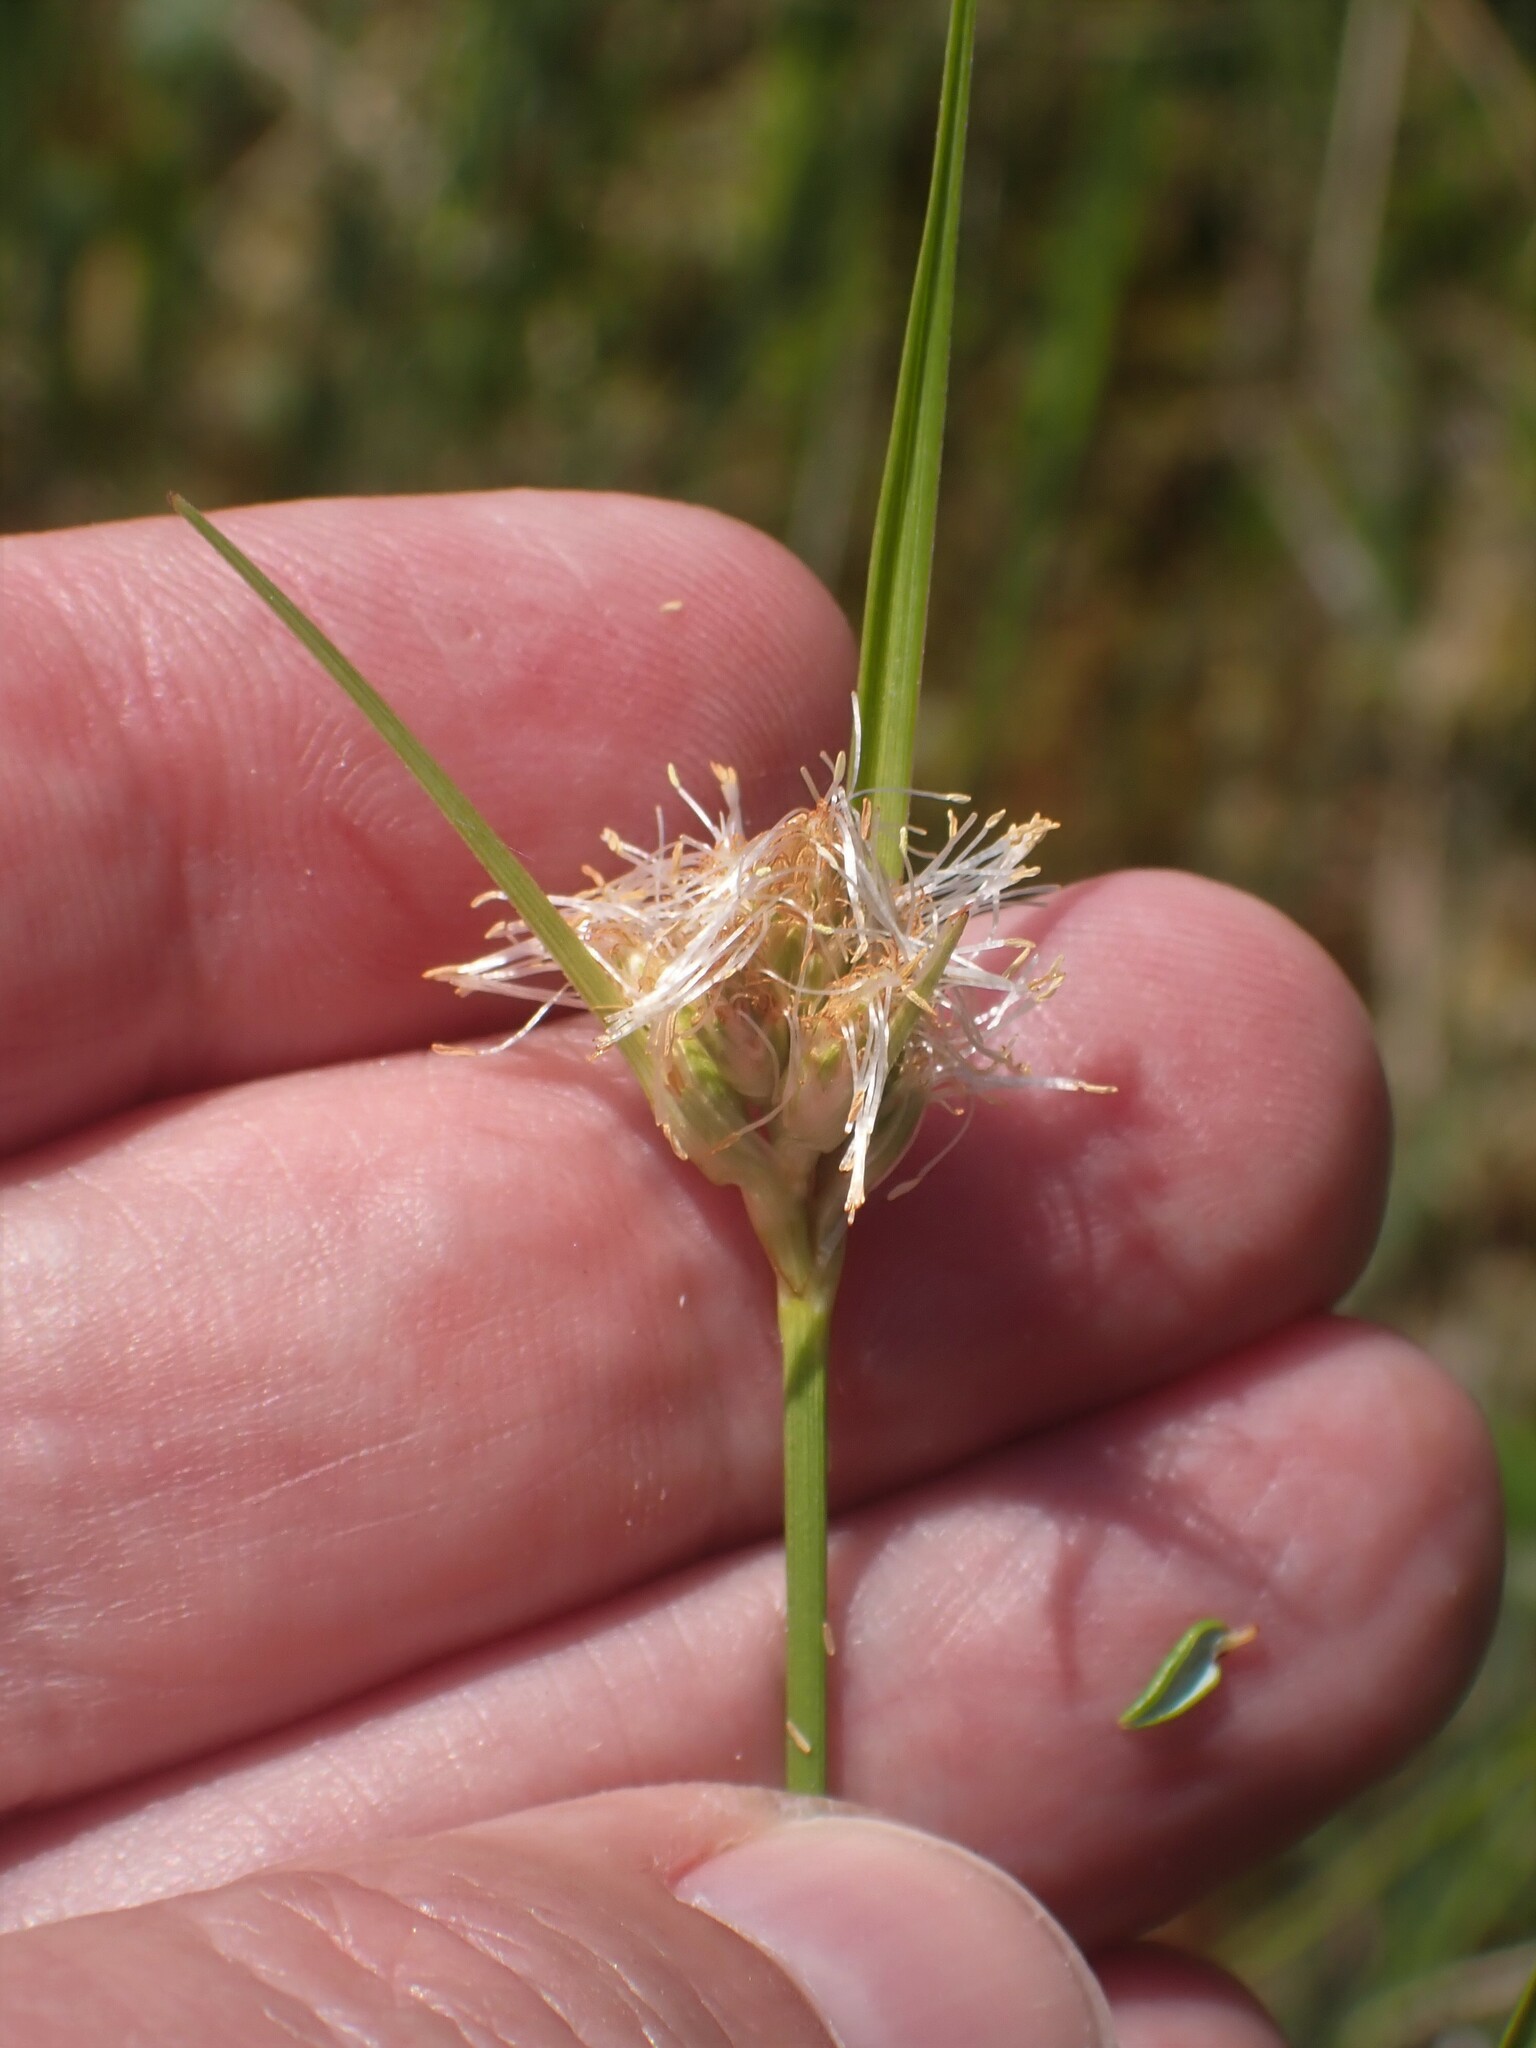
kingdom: Plantae
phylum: Tracheophyta
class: Liliopsida
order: Poales
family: Cyperaceae
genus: Eriophorum
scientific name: Eriophorum virginicum
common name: Tawny cottongrass
